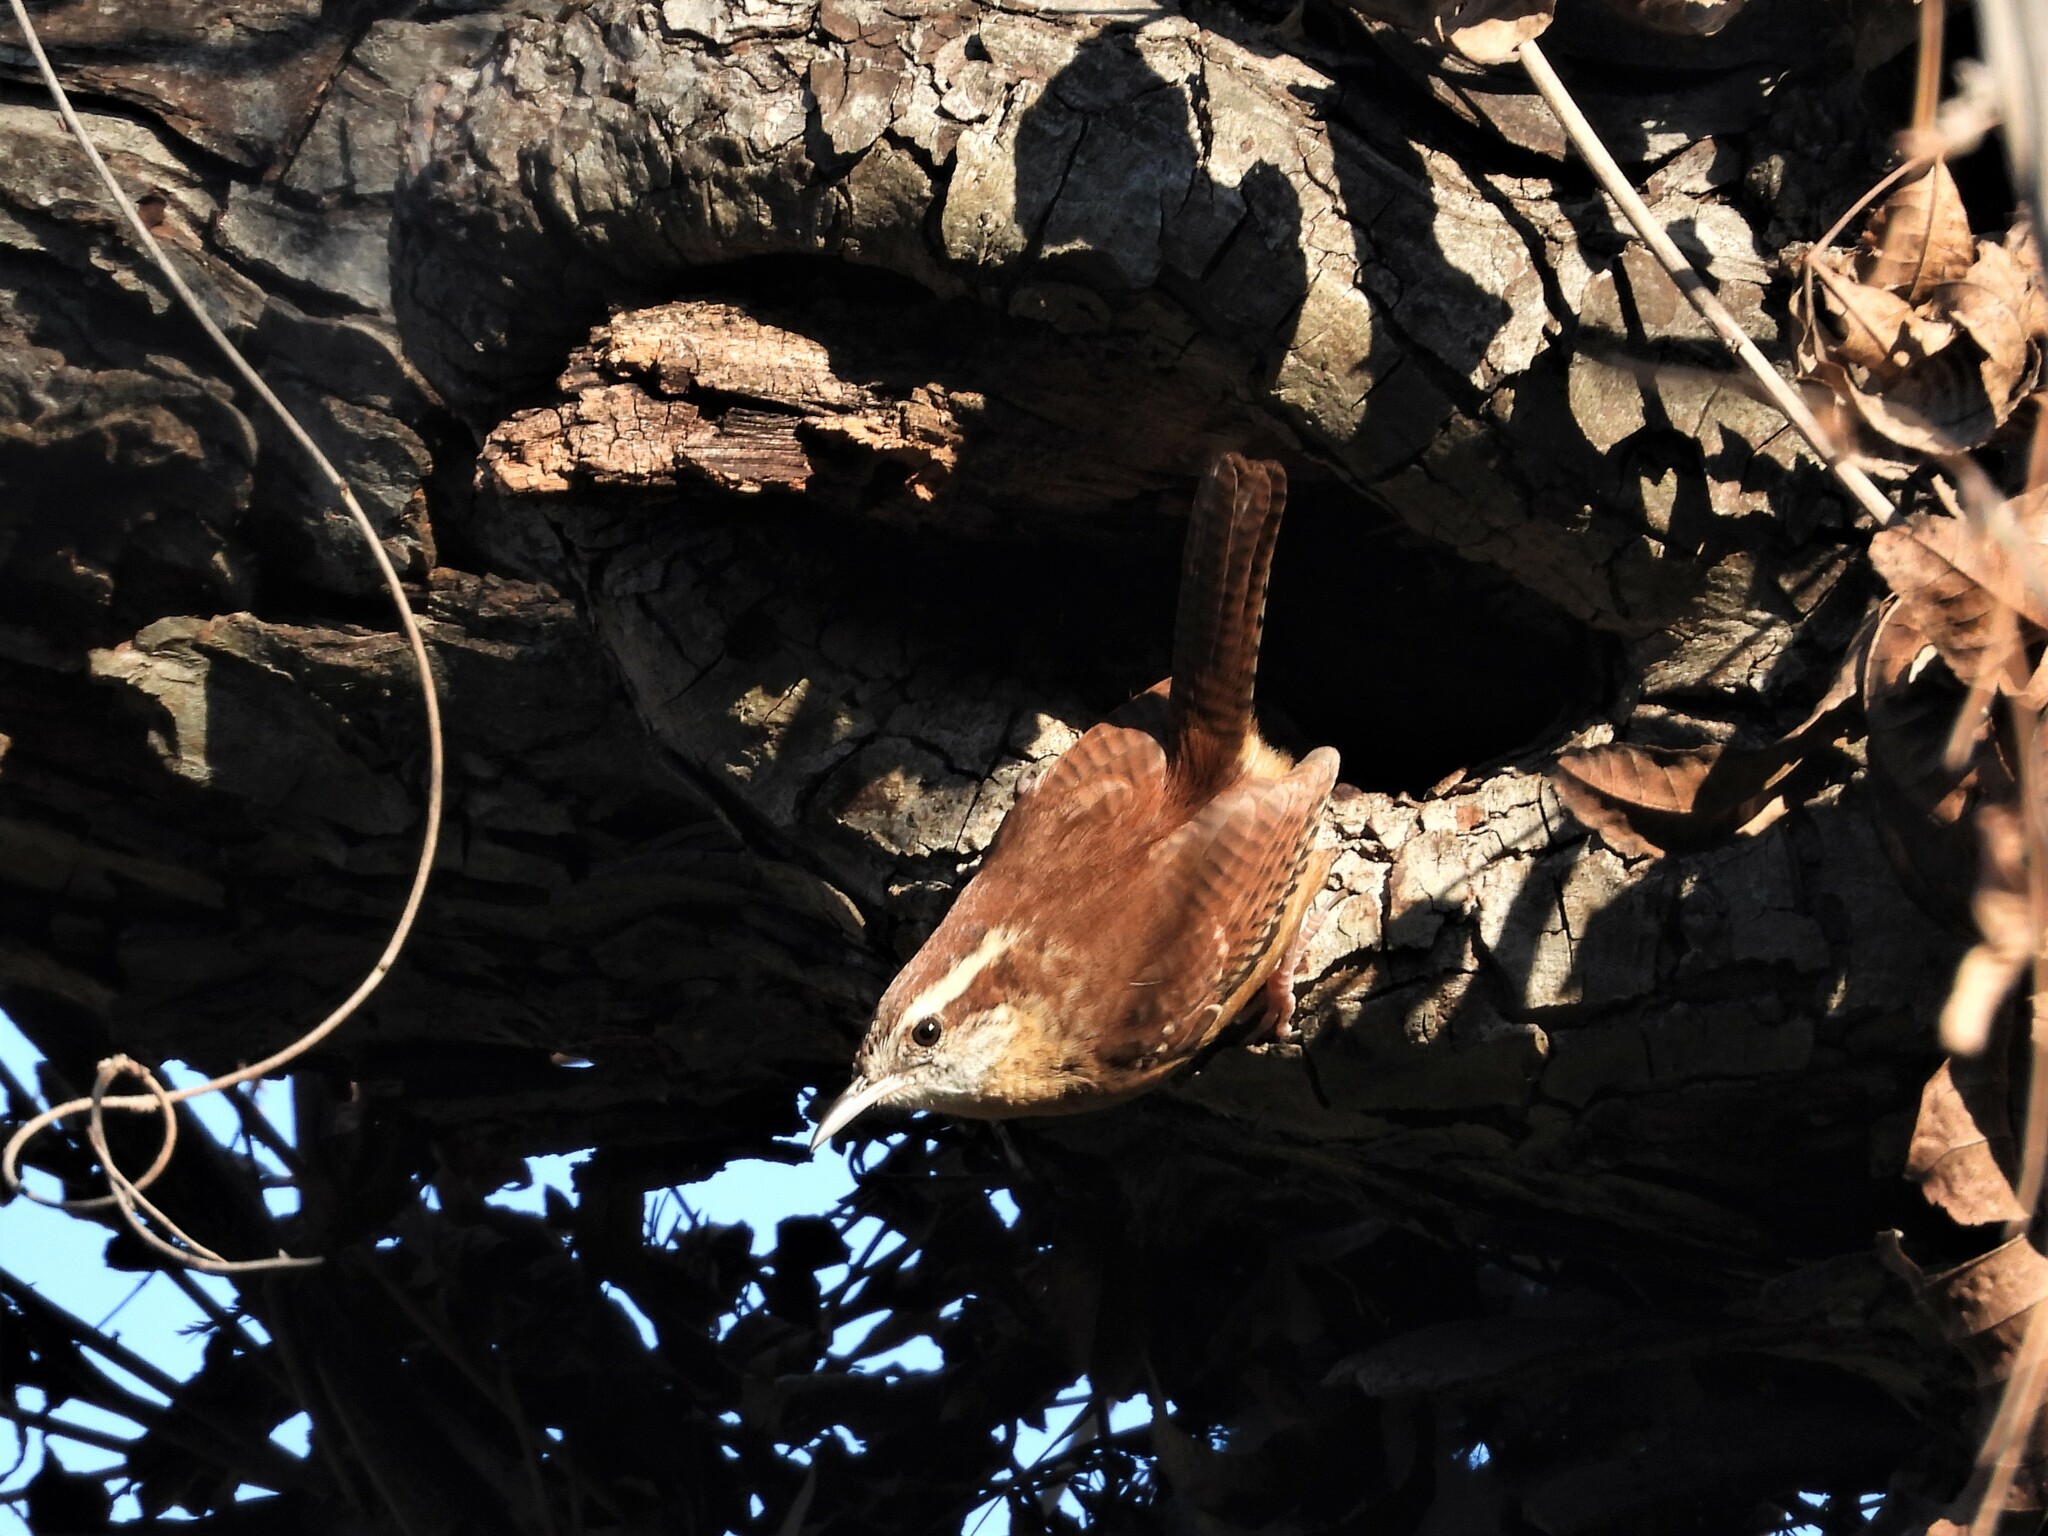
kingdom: Animalia
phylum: Chordata
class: Aves
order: Passeriformes
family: Troglodytidae
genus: Thryothorus
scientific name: Thryothorus ludovicianus
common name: Carolina wren
